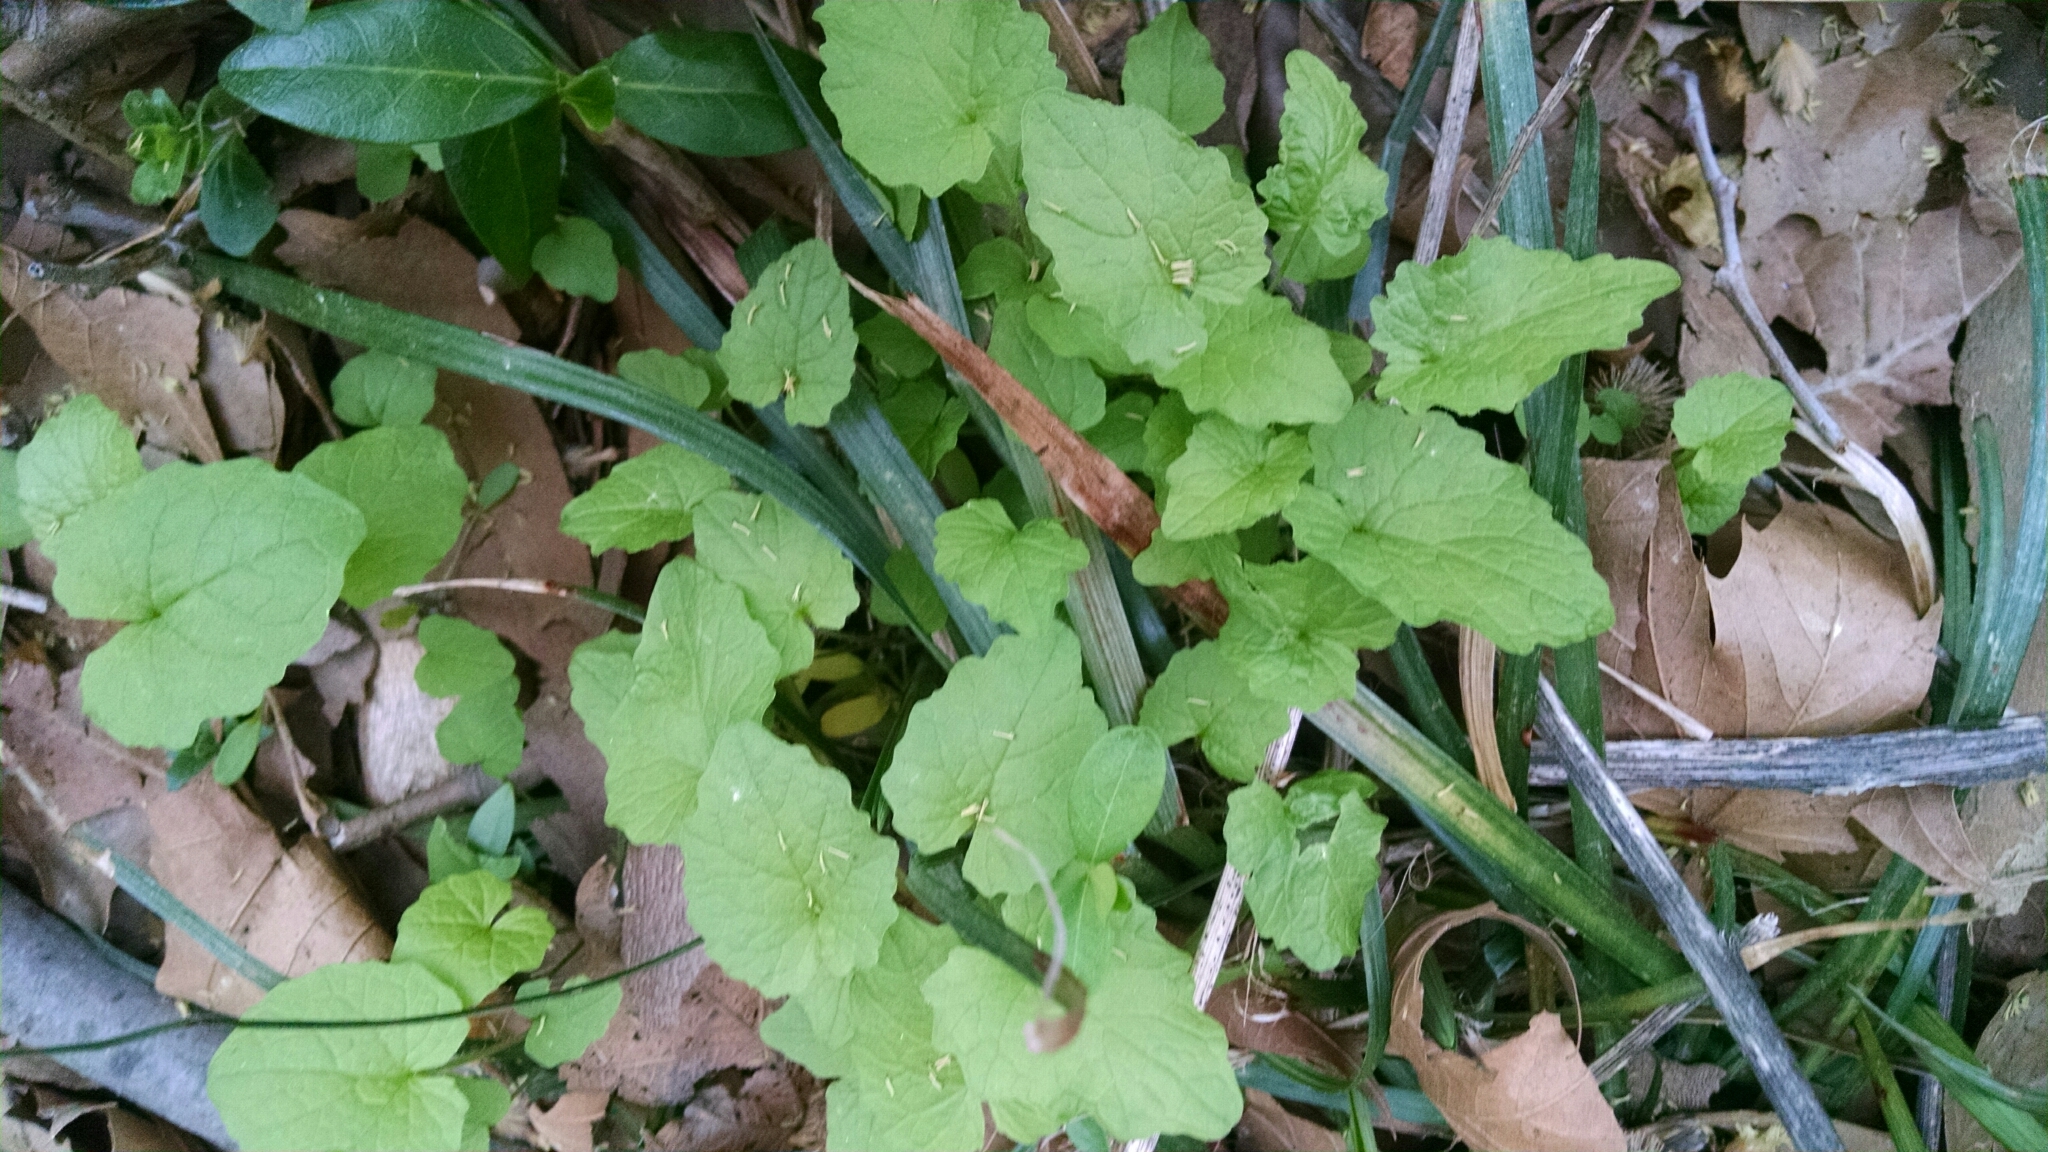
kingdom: Plantae
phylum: Tracheophyta
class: Magnoliopsida
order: Brassicales
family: Brassicaceae
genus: Alliaria
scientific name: Alliaria petiolata
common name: Garlic mustard
